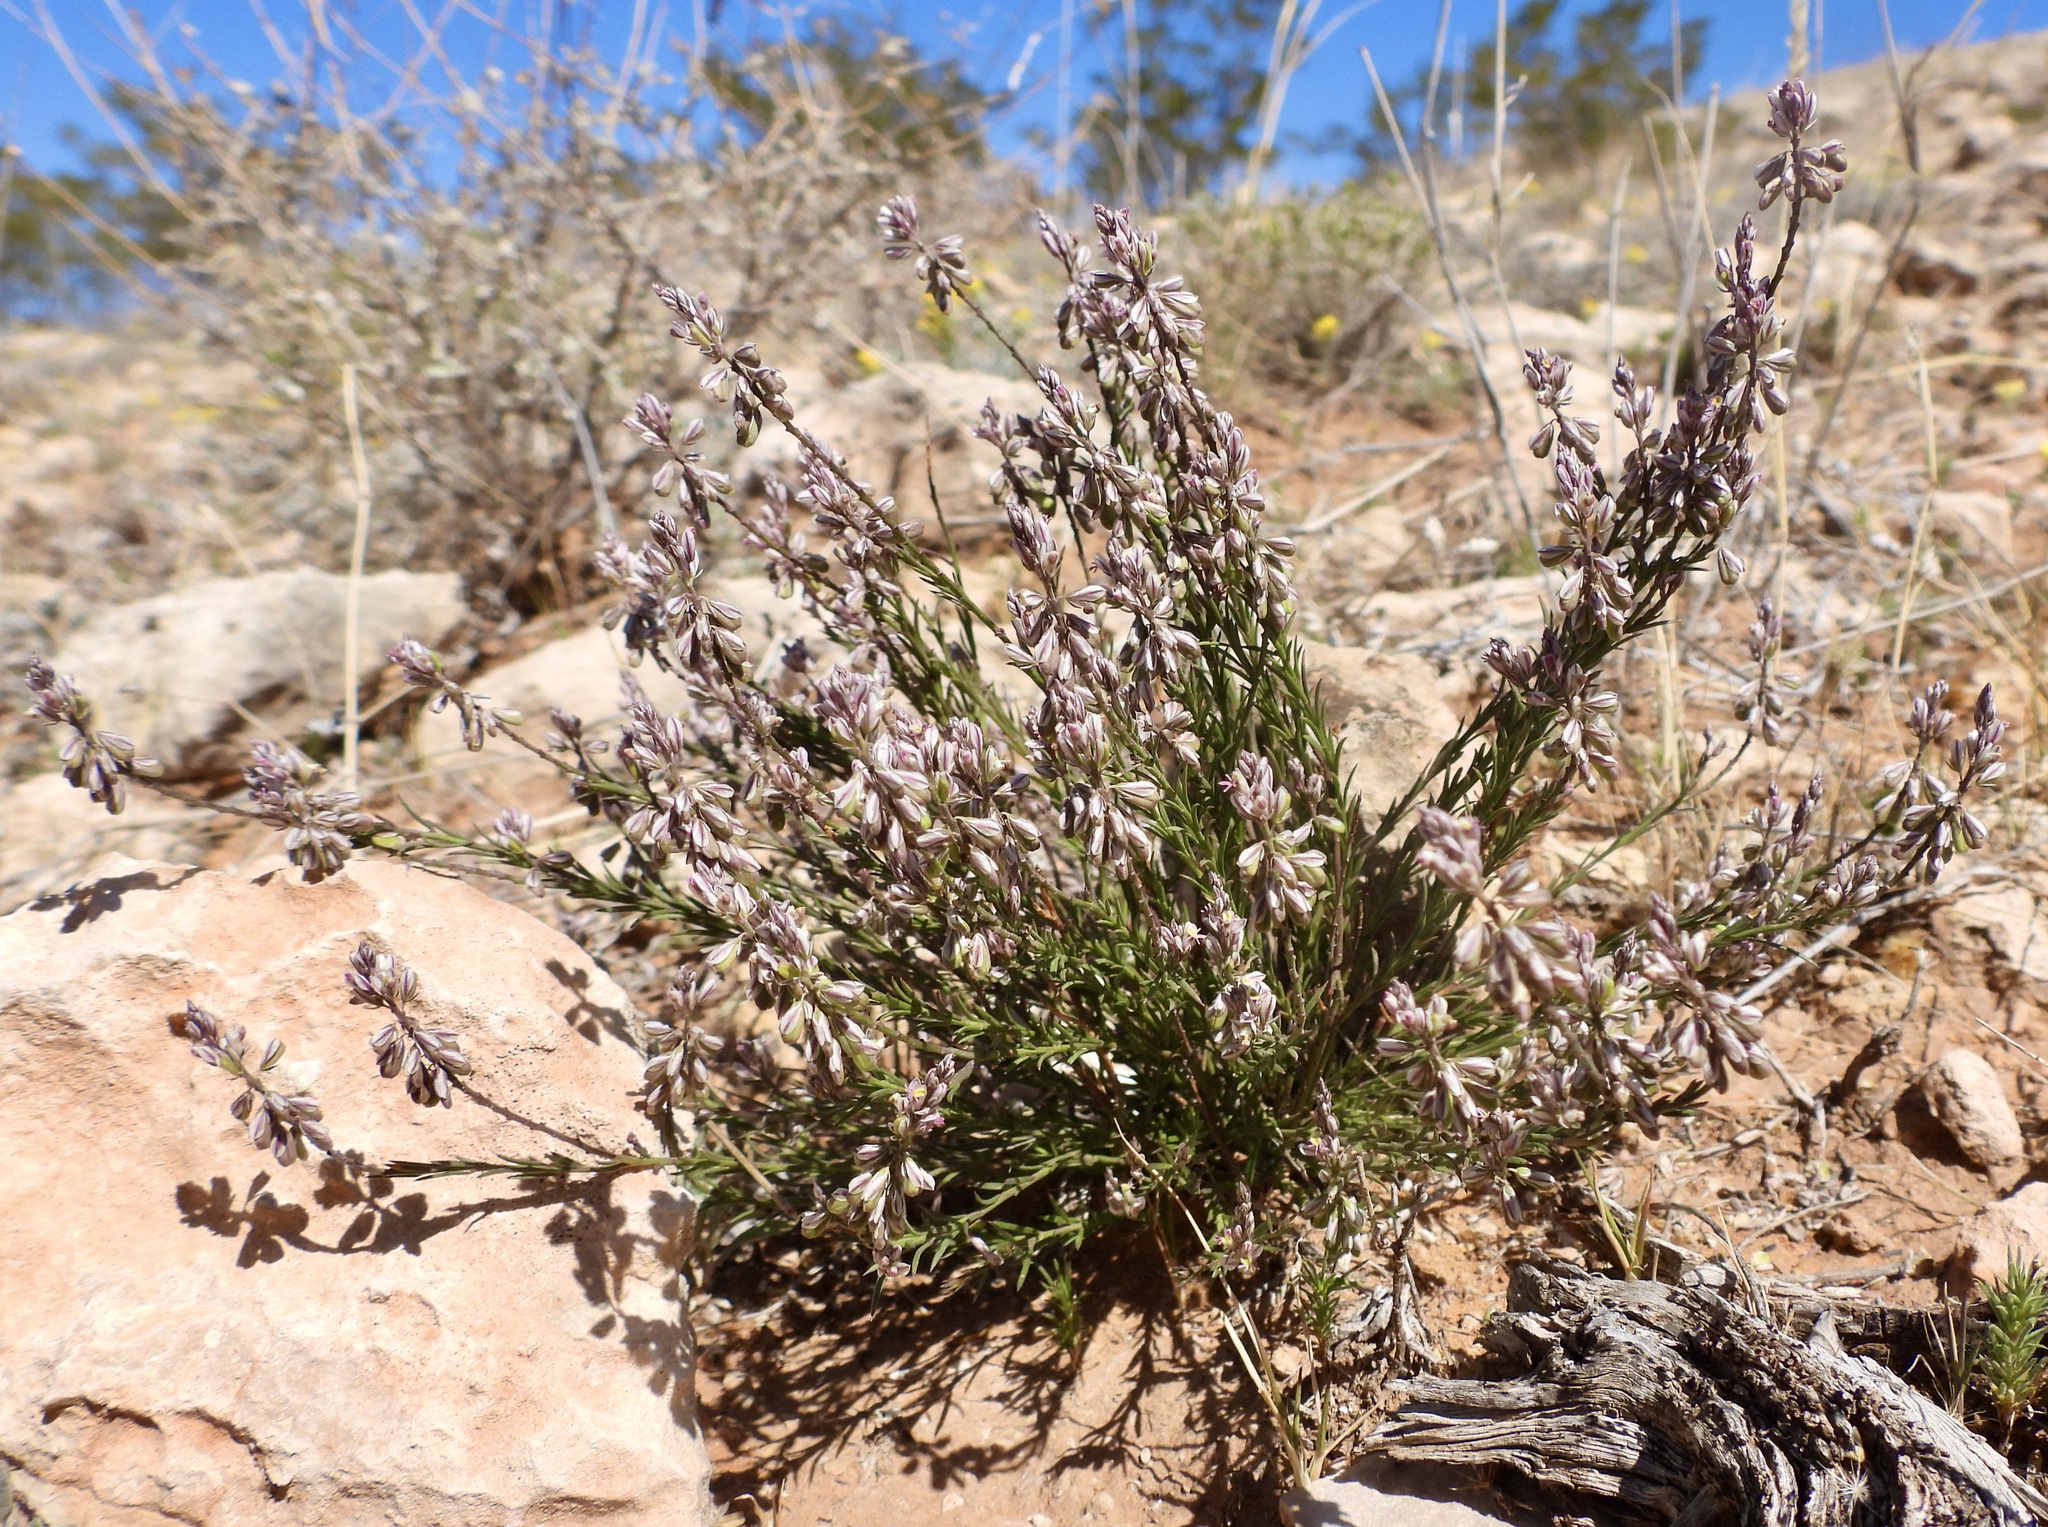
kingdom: Plantae
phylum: Tracheophyta
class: Magnoliopsida
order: Fabales
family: Polygalaceae
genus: Polygala
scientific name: Polygala scoparioides
